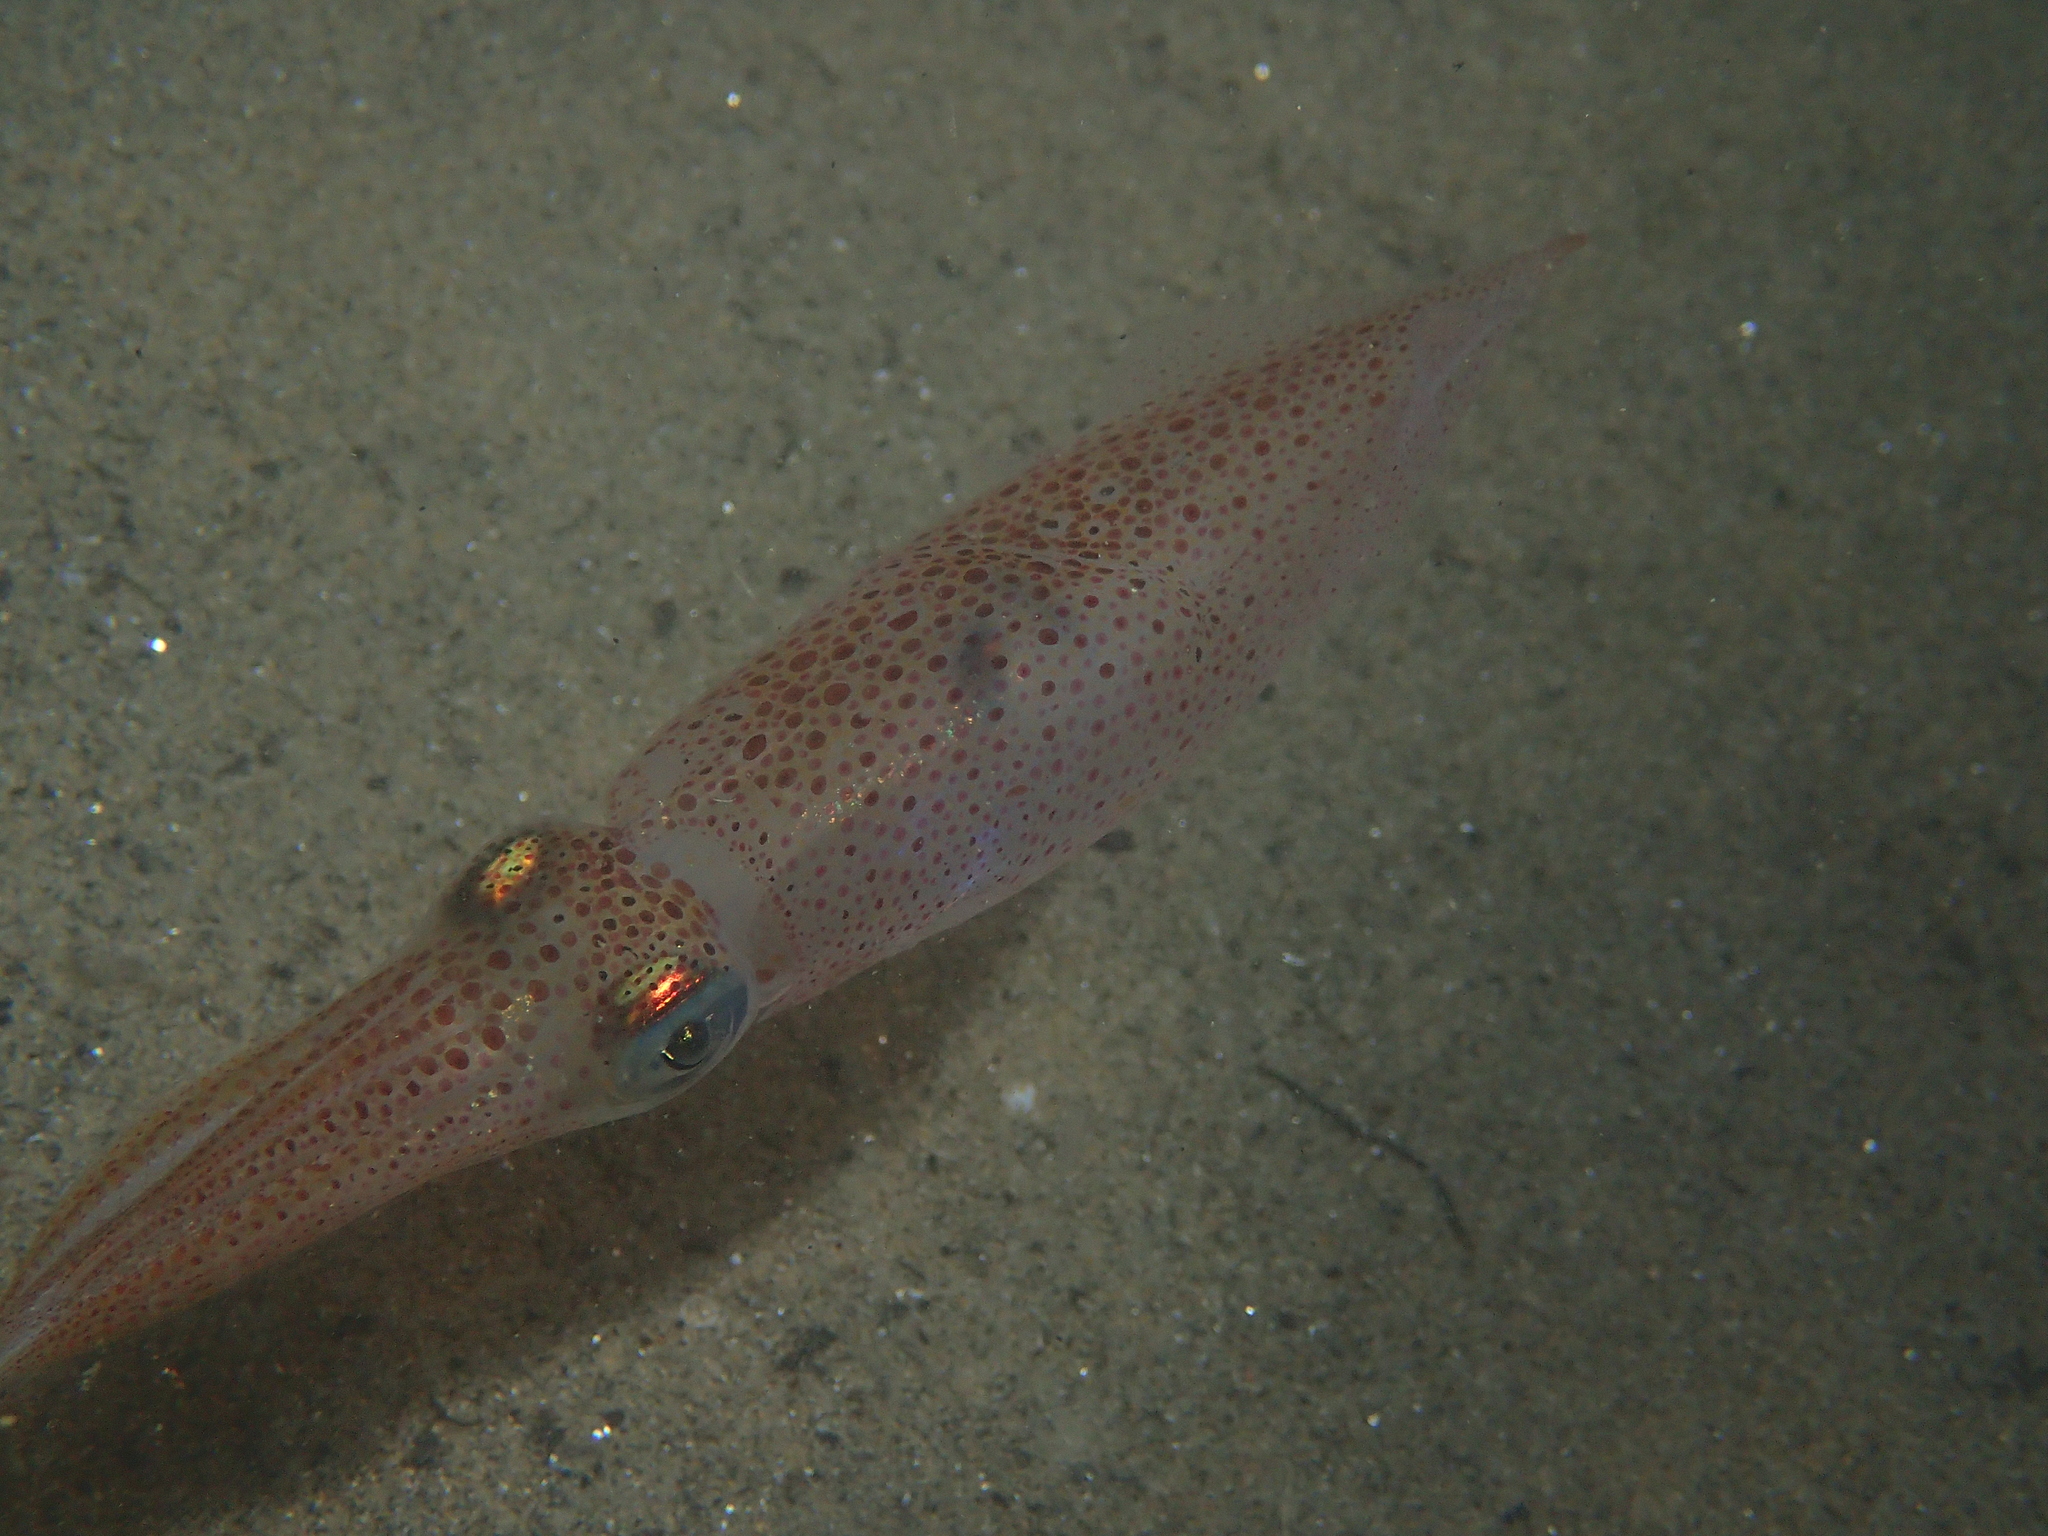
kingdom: Animalia
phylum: Mollusca
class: Cephalopoda
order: Myopsida
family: Loliginidae
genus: Loligo
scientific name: Loligo
